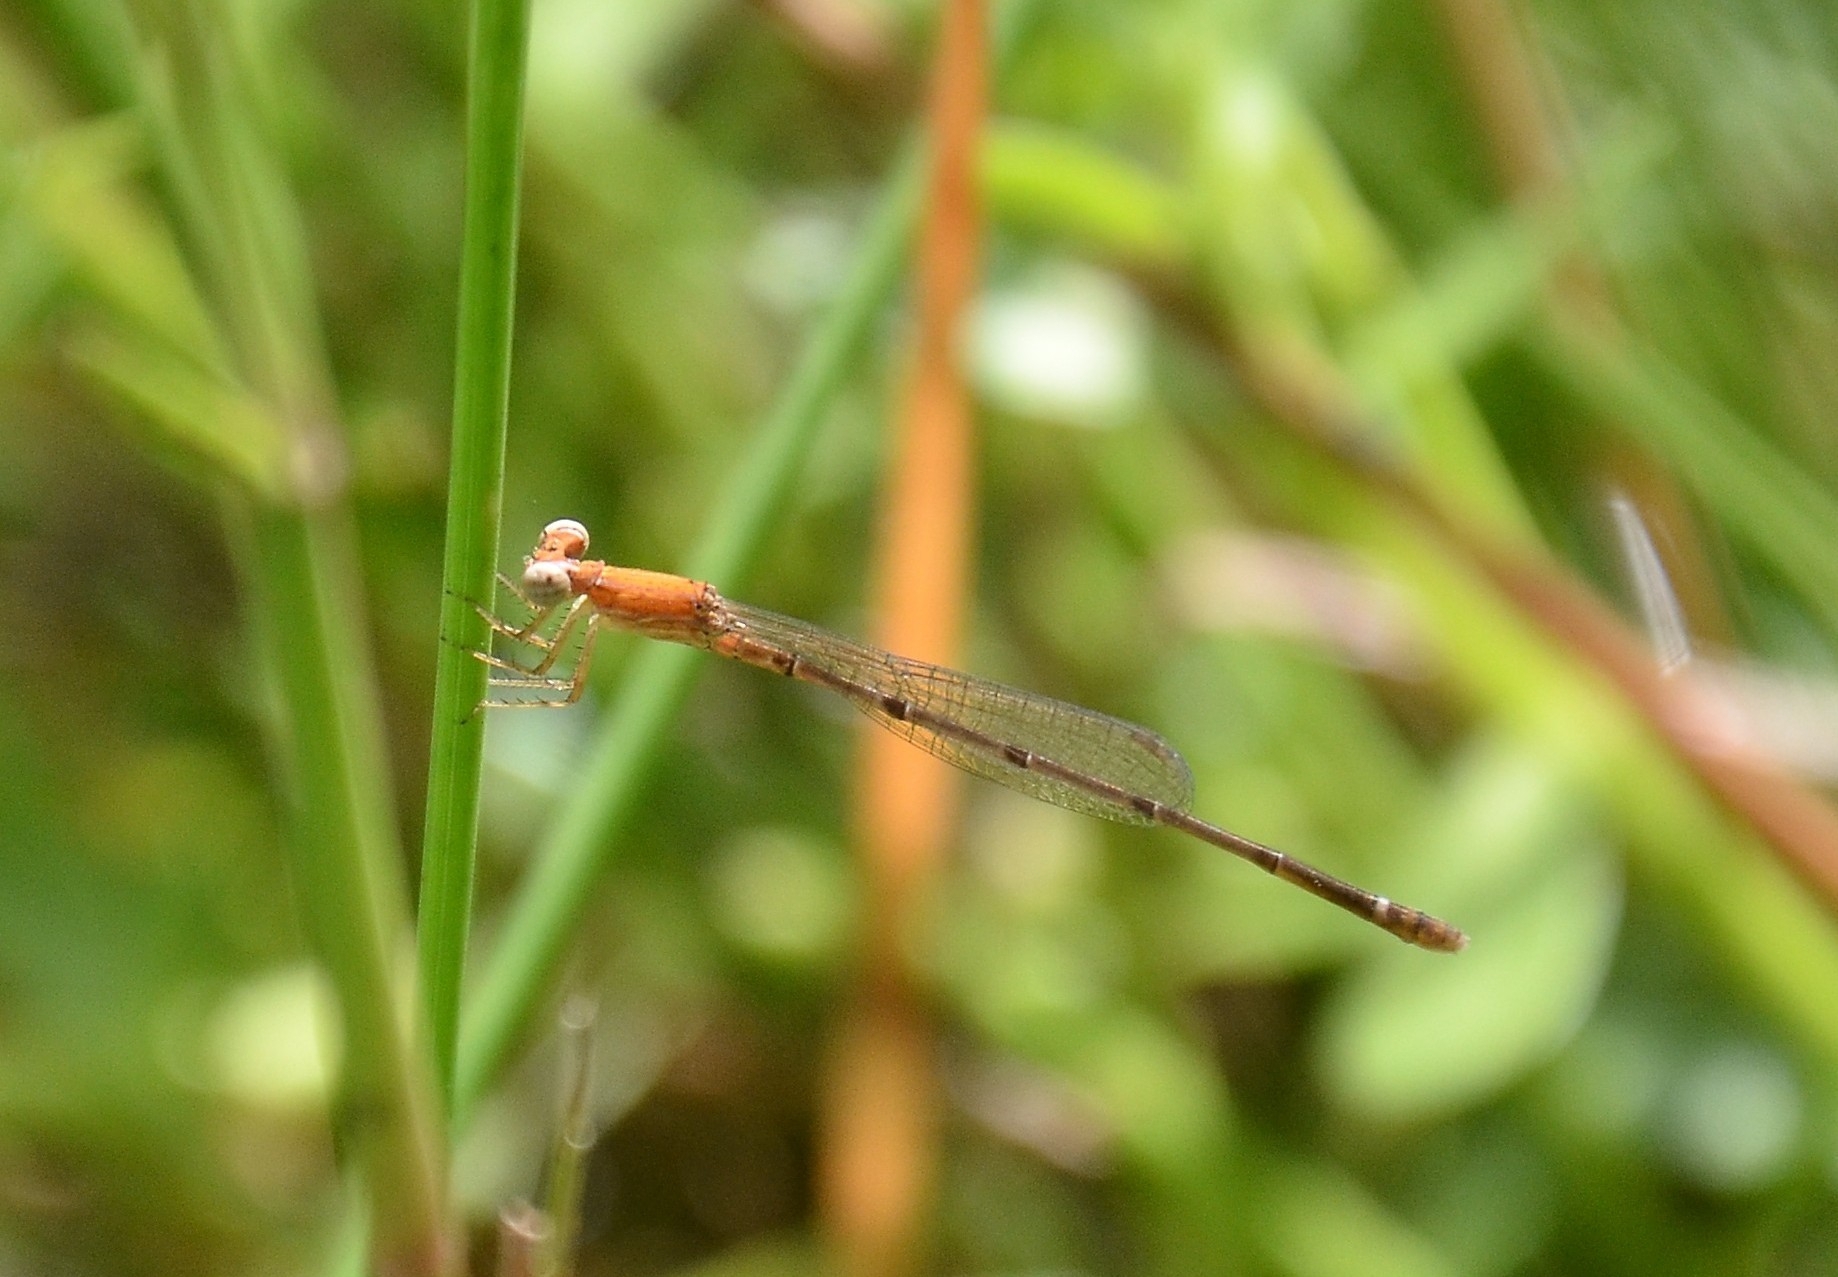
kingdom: Animalia
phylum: Arthropoda
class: Insecta
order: Odonata
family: Coenagrionidae
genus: Mortonagrion
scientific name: Mortonagrion varralli
